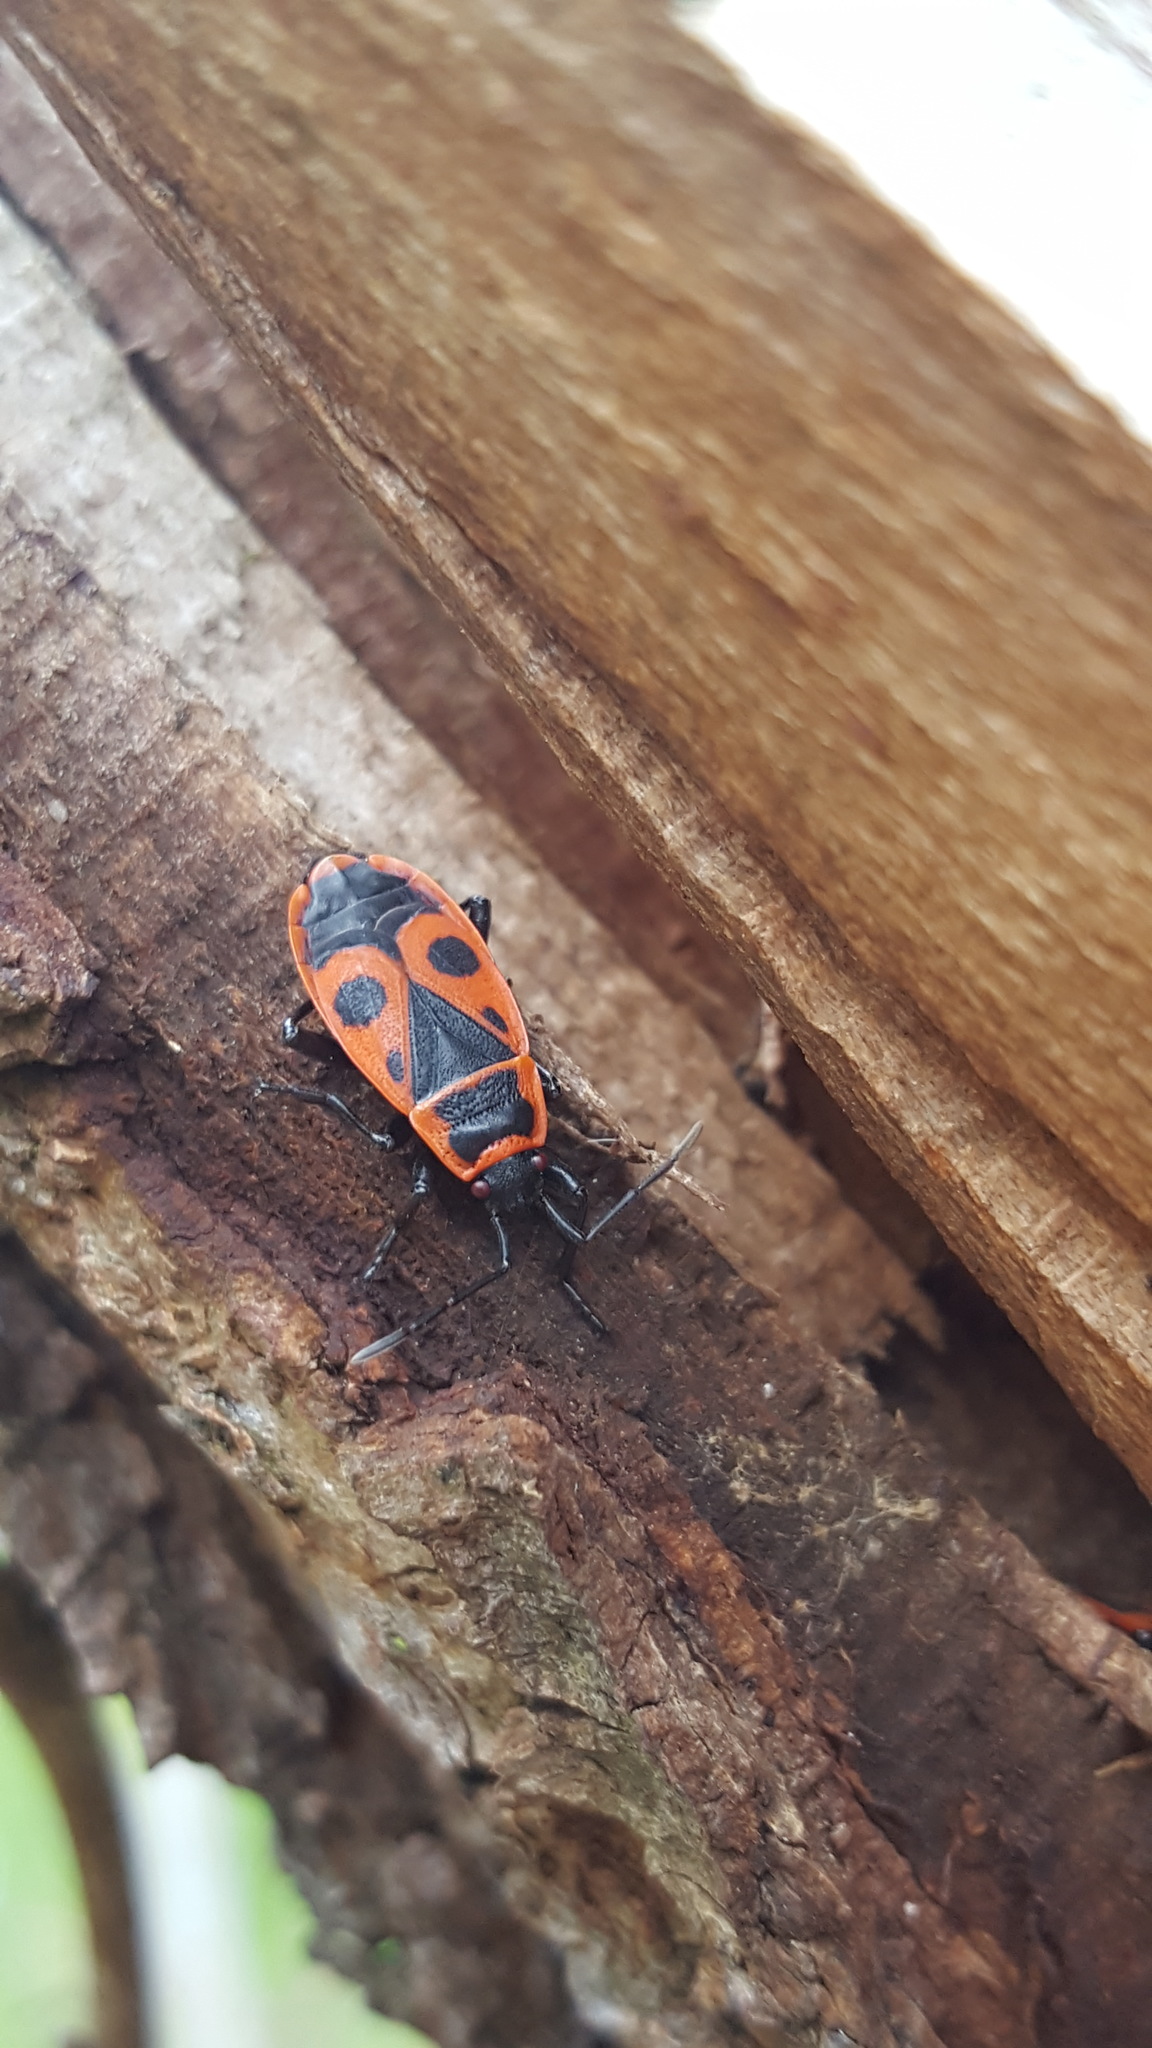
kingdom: Animalia
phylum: Arthropoda
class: Insecta
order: Hemiptera
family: Pyrrhocoridae
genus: Pyrrhocoris
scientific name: Pyrrhocoris apterus
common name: Firebug
